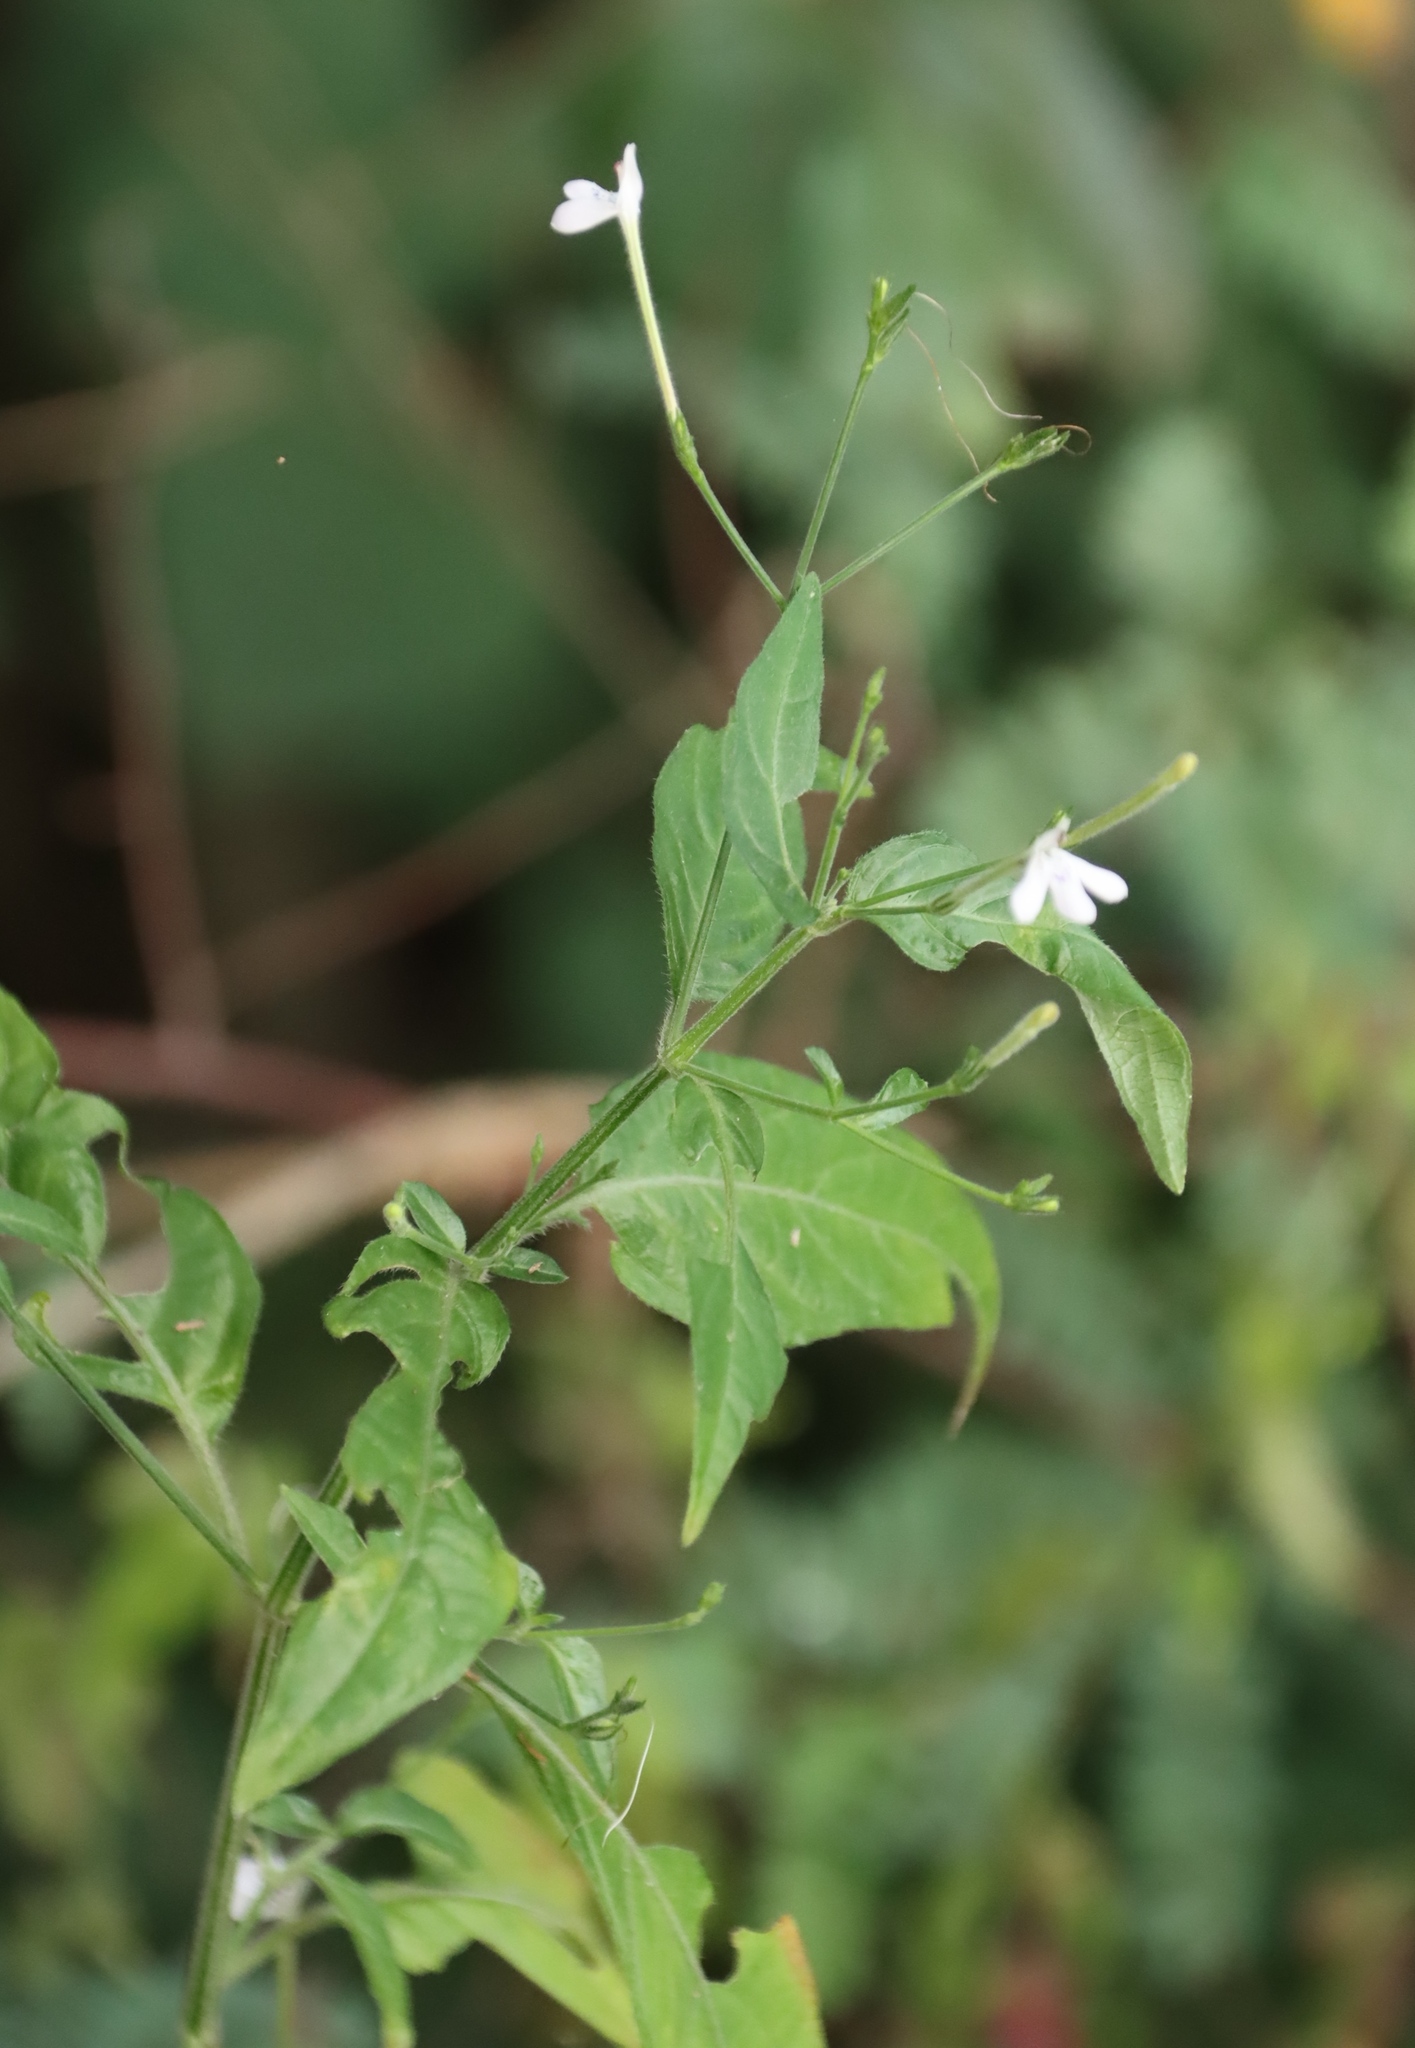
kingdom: Plantae
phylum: Tracheophyta
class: Magnoliopsida
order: Lamiales
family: Acanthaceae
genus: Rhinacanthus
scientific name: Rhinacanthus gracilis
